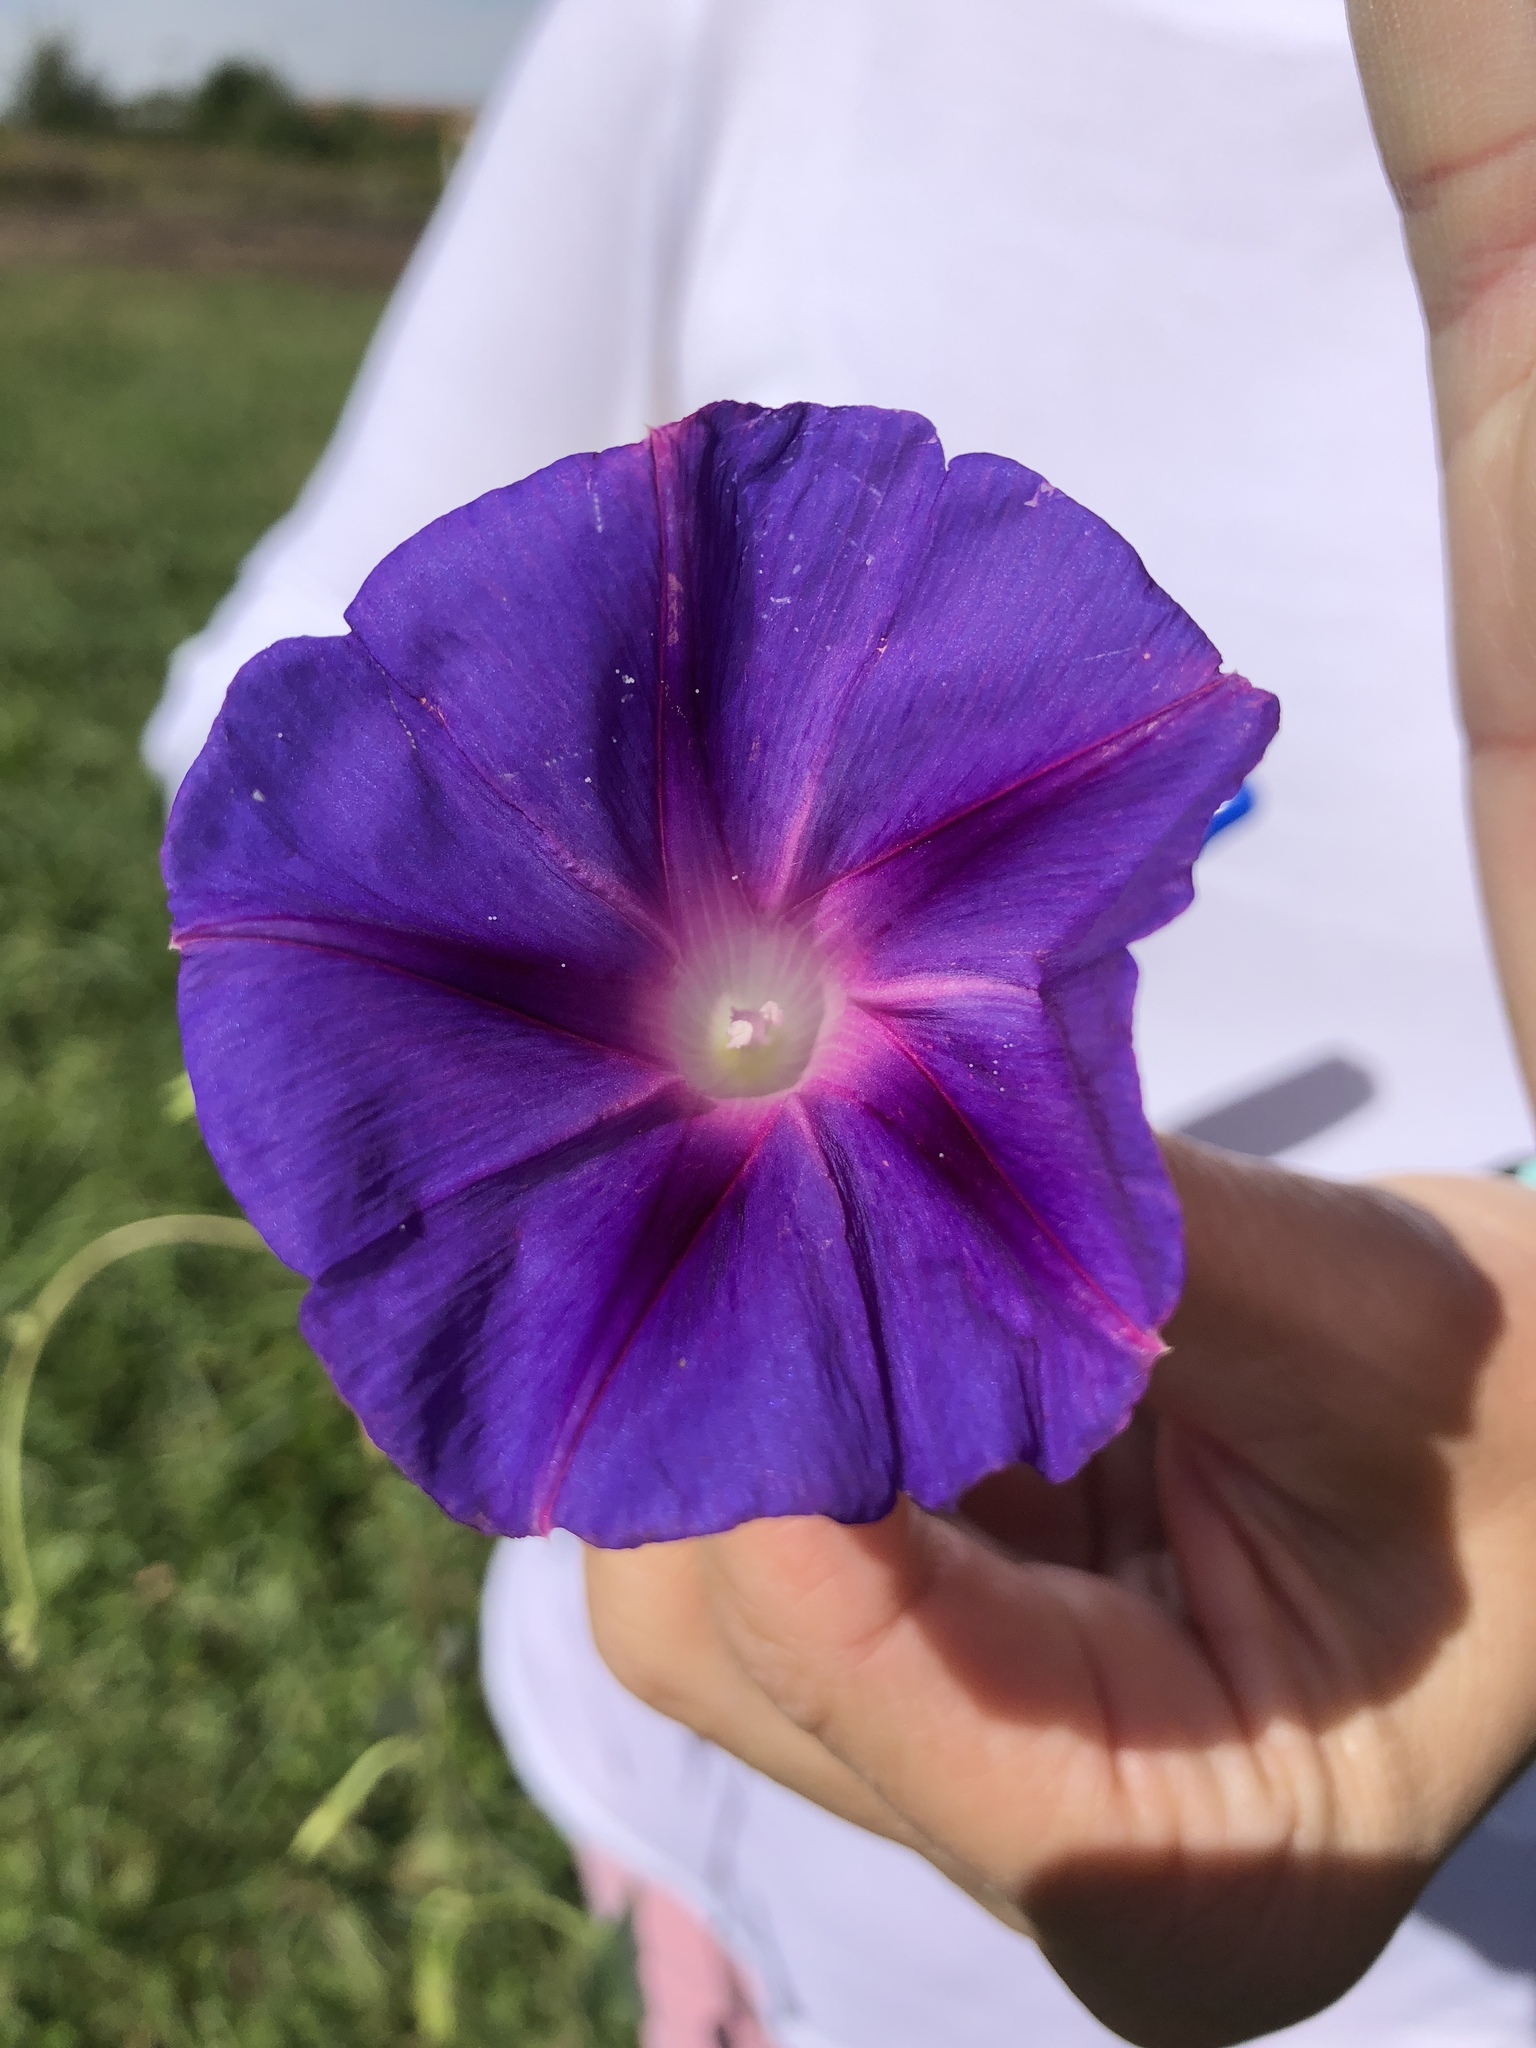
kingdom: Plantae
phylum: Tracheophyta
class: Magnoliopsida
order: Solanales
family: Convolvulaceae
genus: Ipomoea
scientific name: Ipomoea purpurea
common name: Common morning-glory
